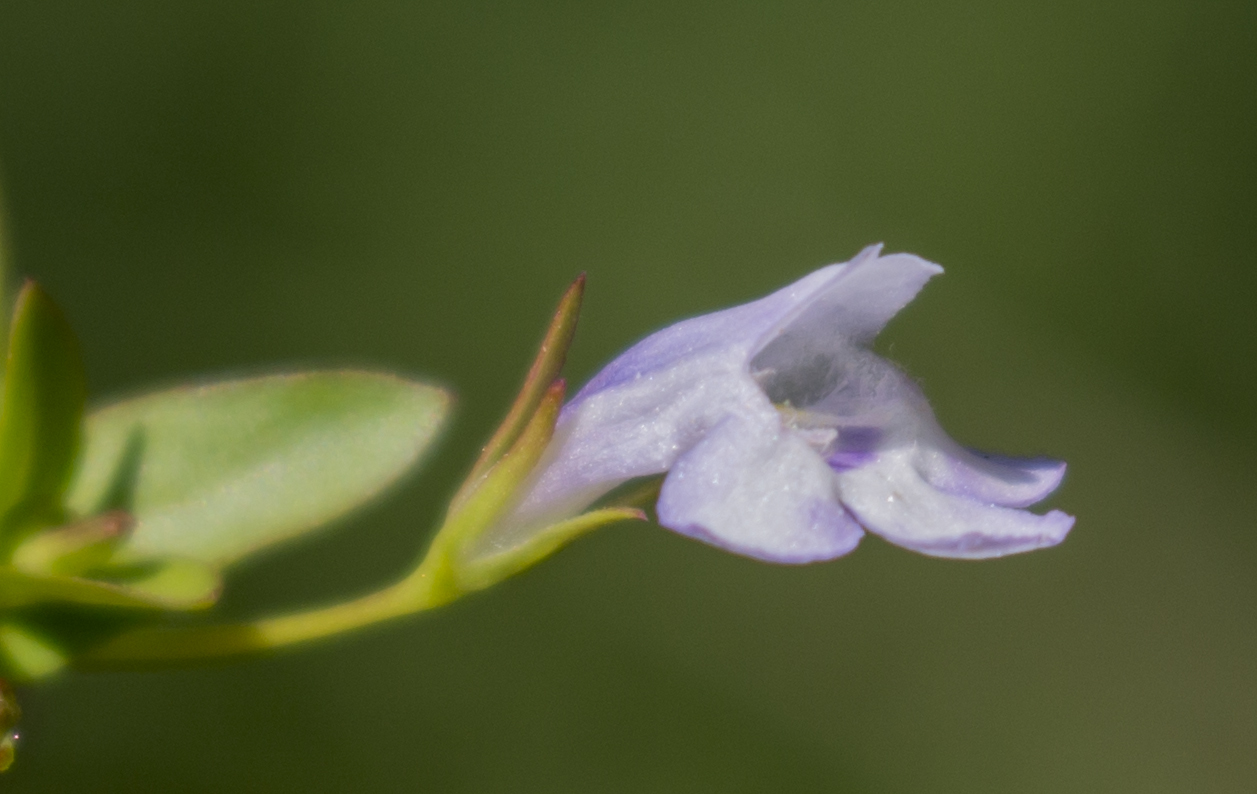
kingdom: Plantae
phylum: Tracheophyta
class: Magnoliopsida
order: Lamiales
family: Linderniaceae
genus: Lindernia
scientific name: Lindernia dubia
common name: Annual false pimpernel
